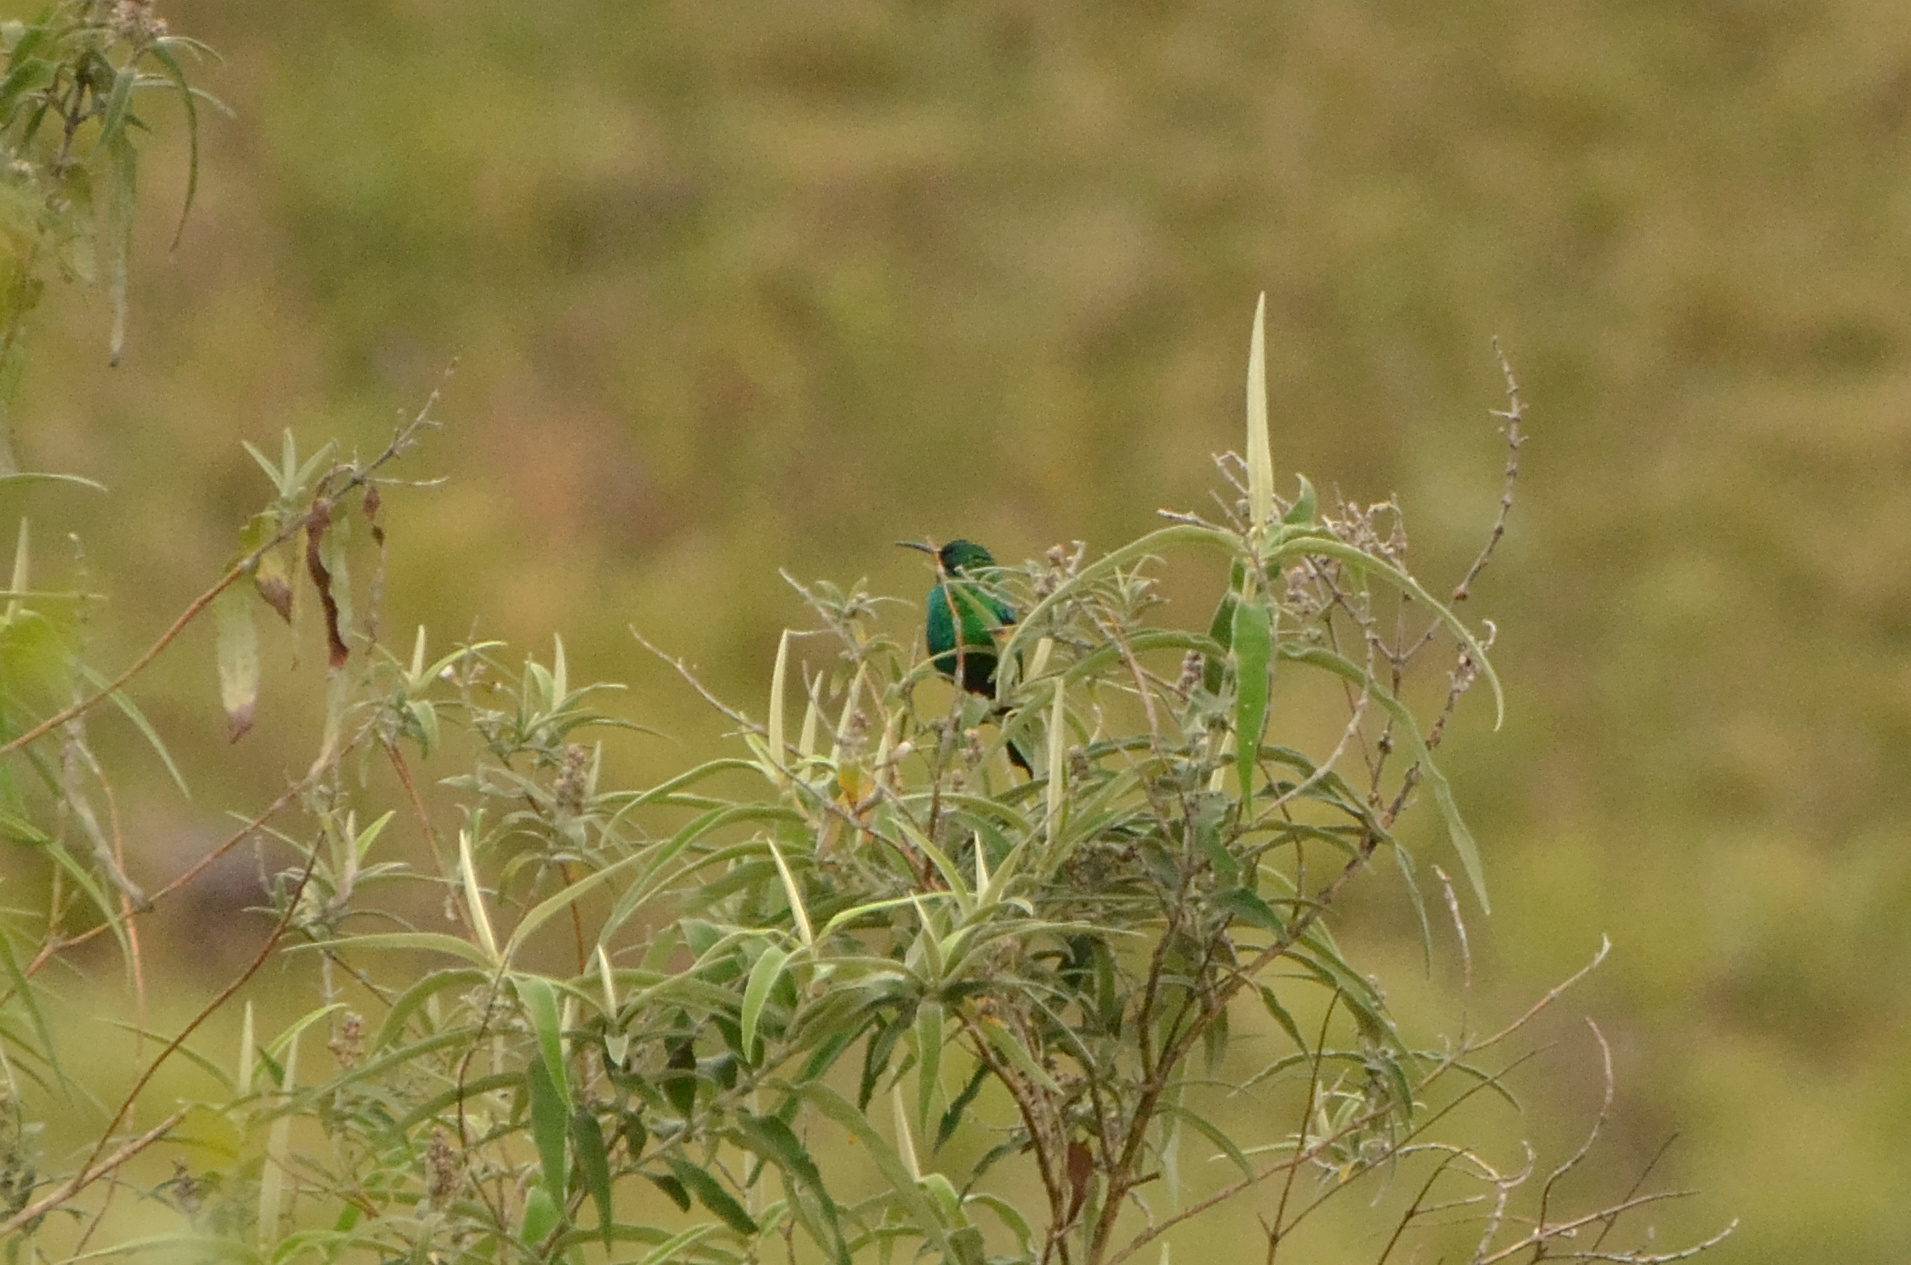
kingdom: Animalia
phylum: Chordata
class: Aves
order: Passeriformes
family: Nectariniidae
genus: Nectarinia
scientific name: Nectarinia famosa
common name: Malachite sunbird
